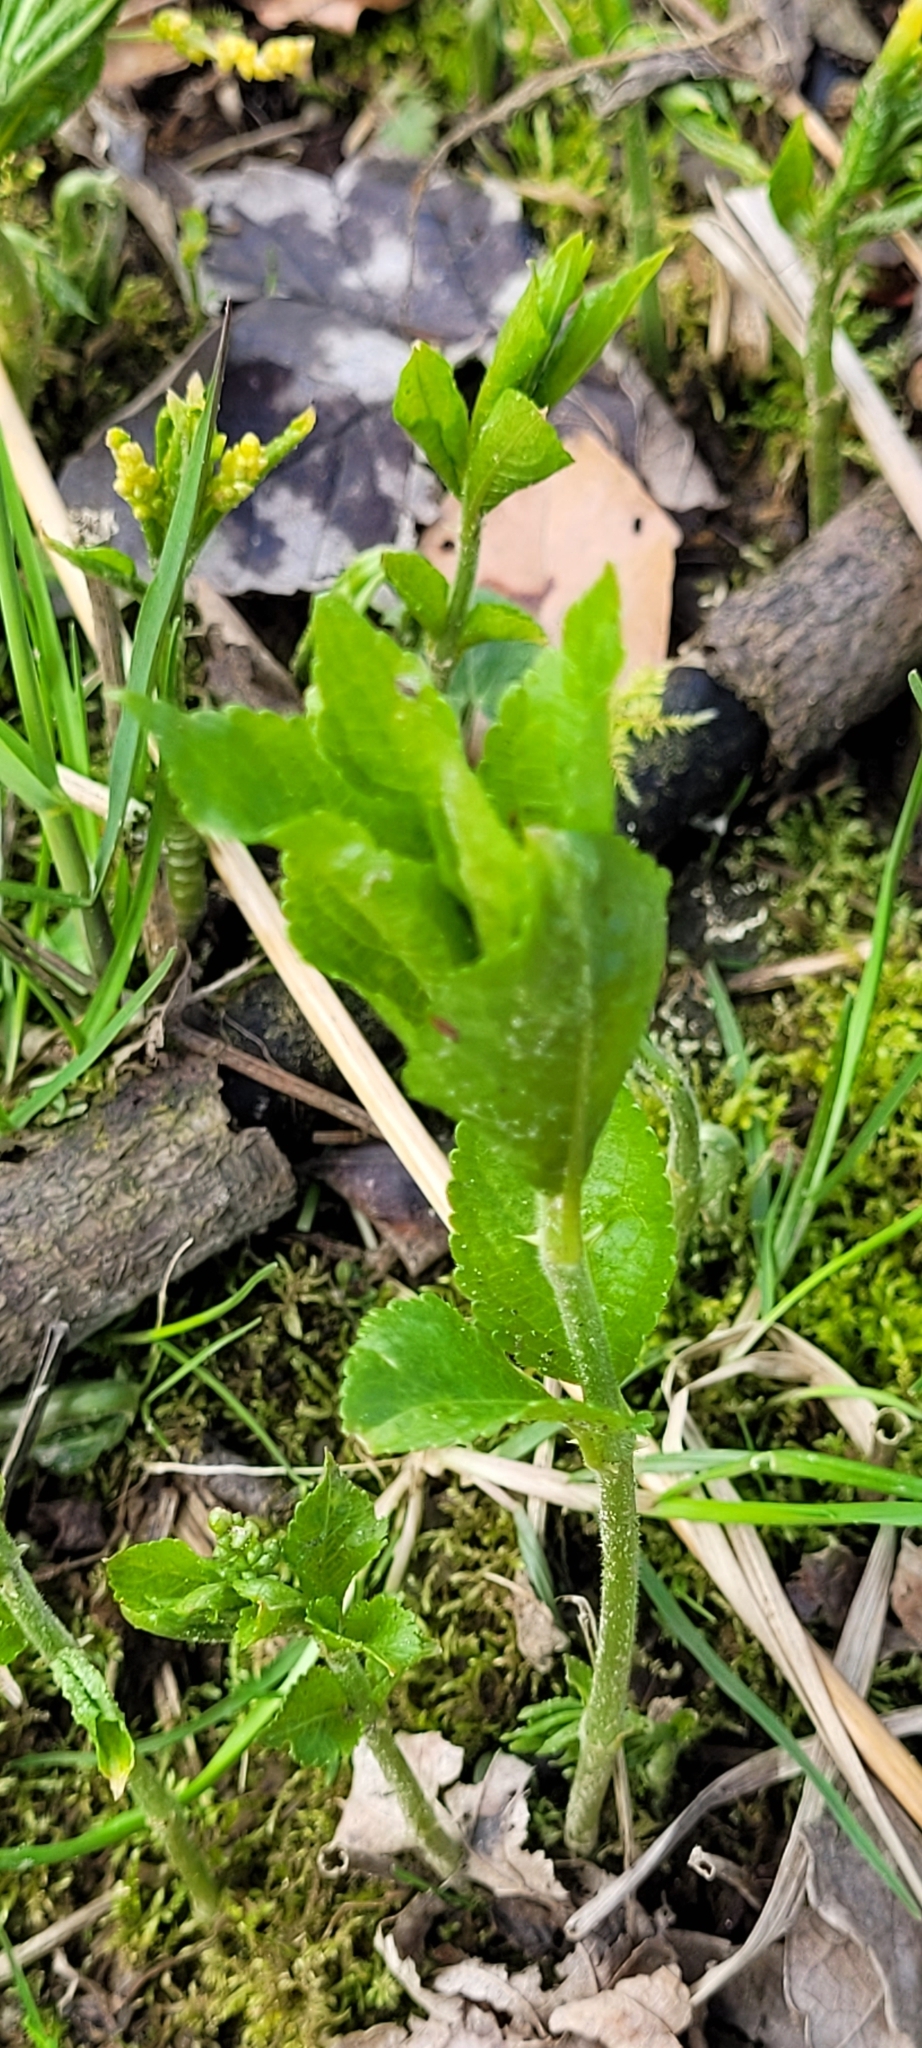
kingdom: Plantae
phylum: Tracheophyta
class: Magnoliopsida
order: Malpighiales
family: Euphorbiaceae
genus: Mercurialis
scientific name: Mercurialis perennis
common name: Dog mercury
